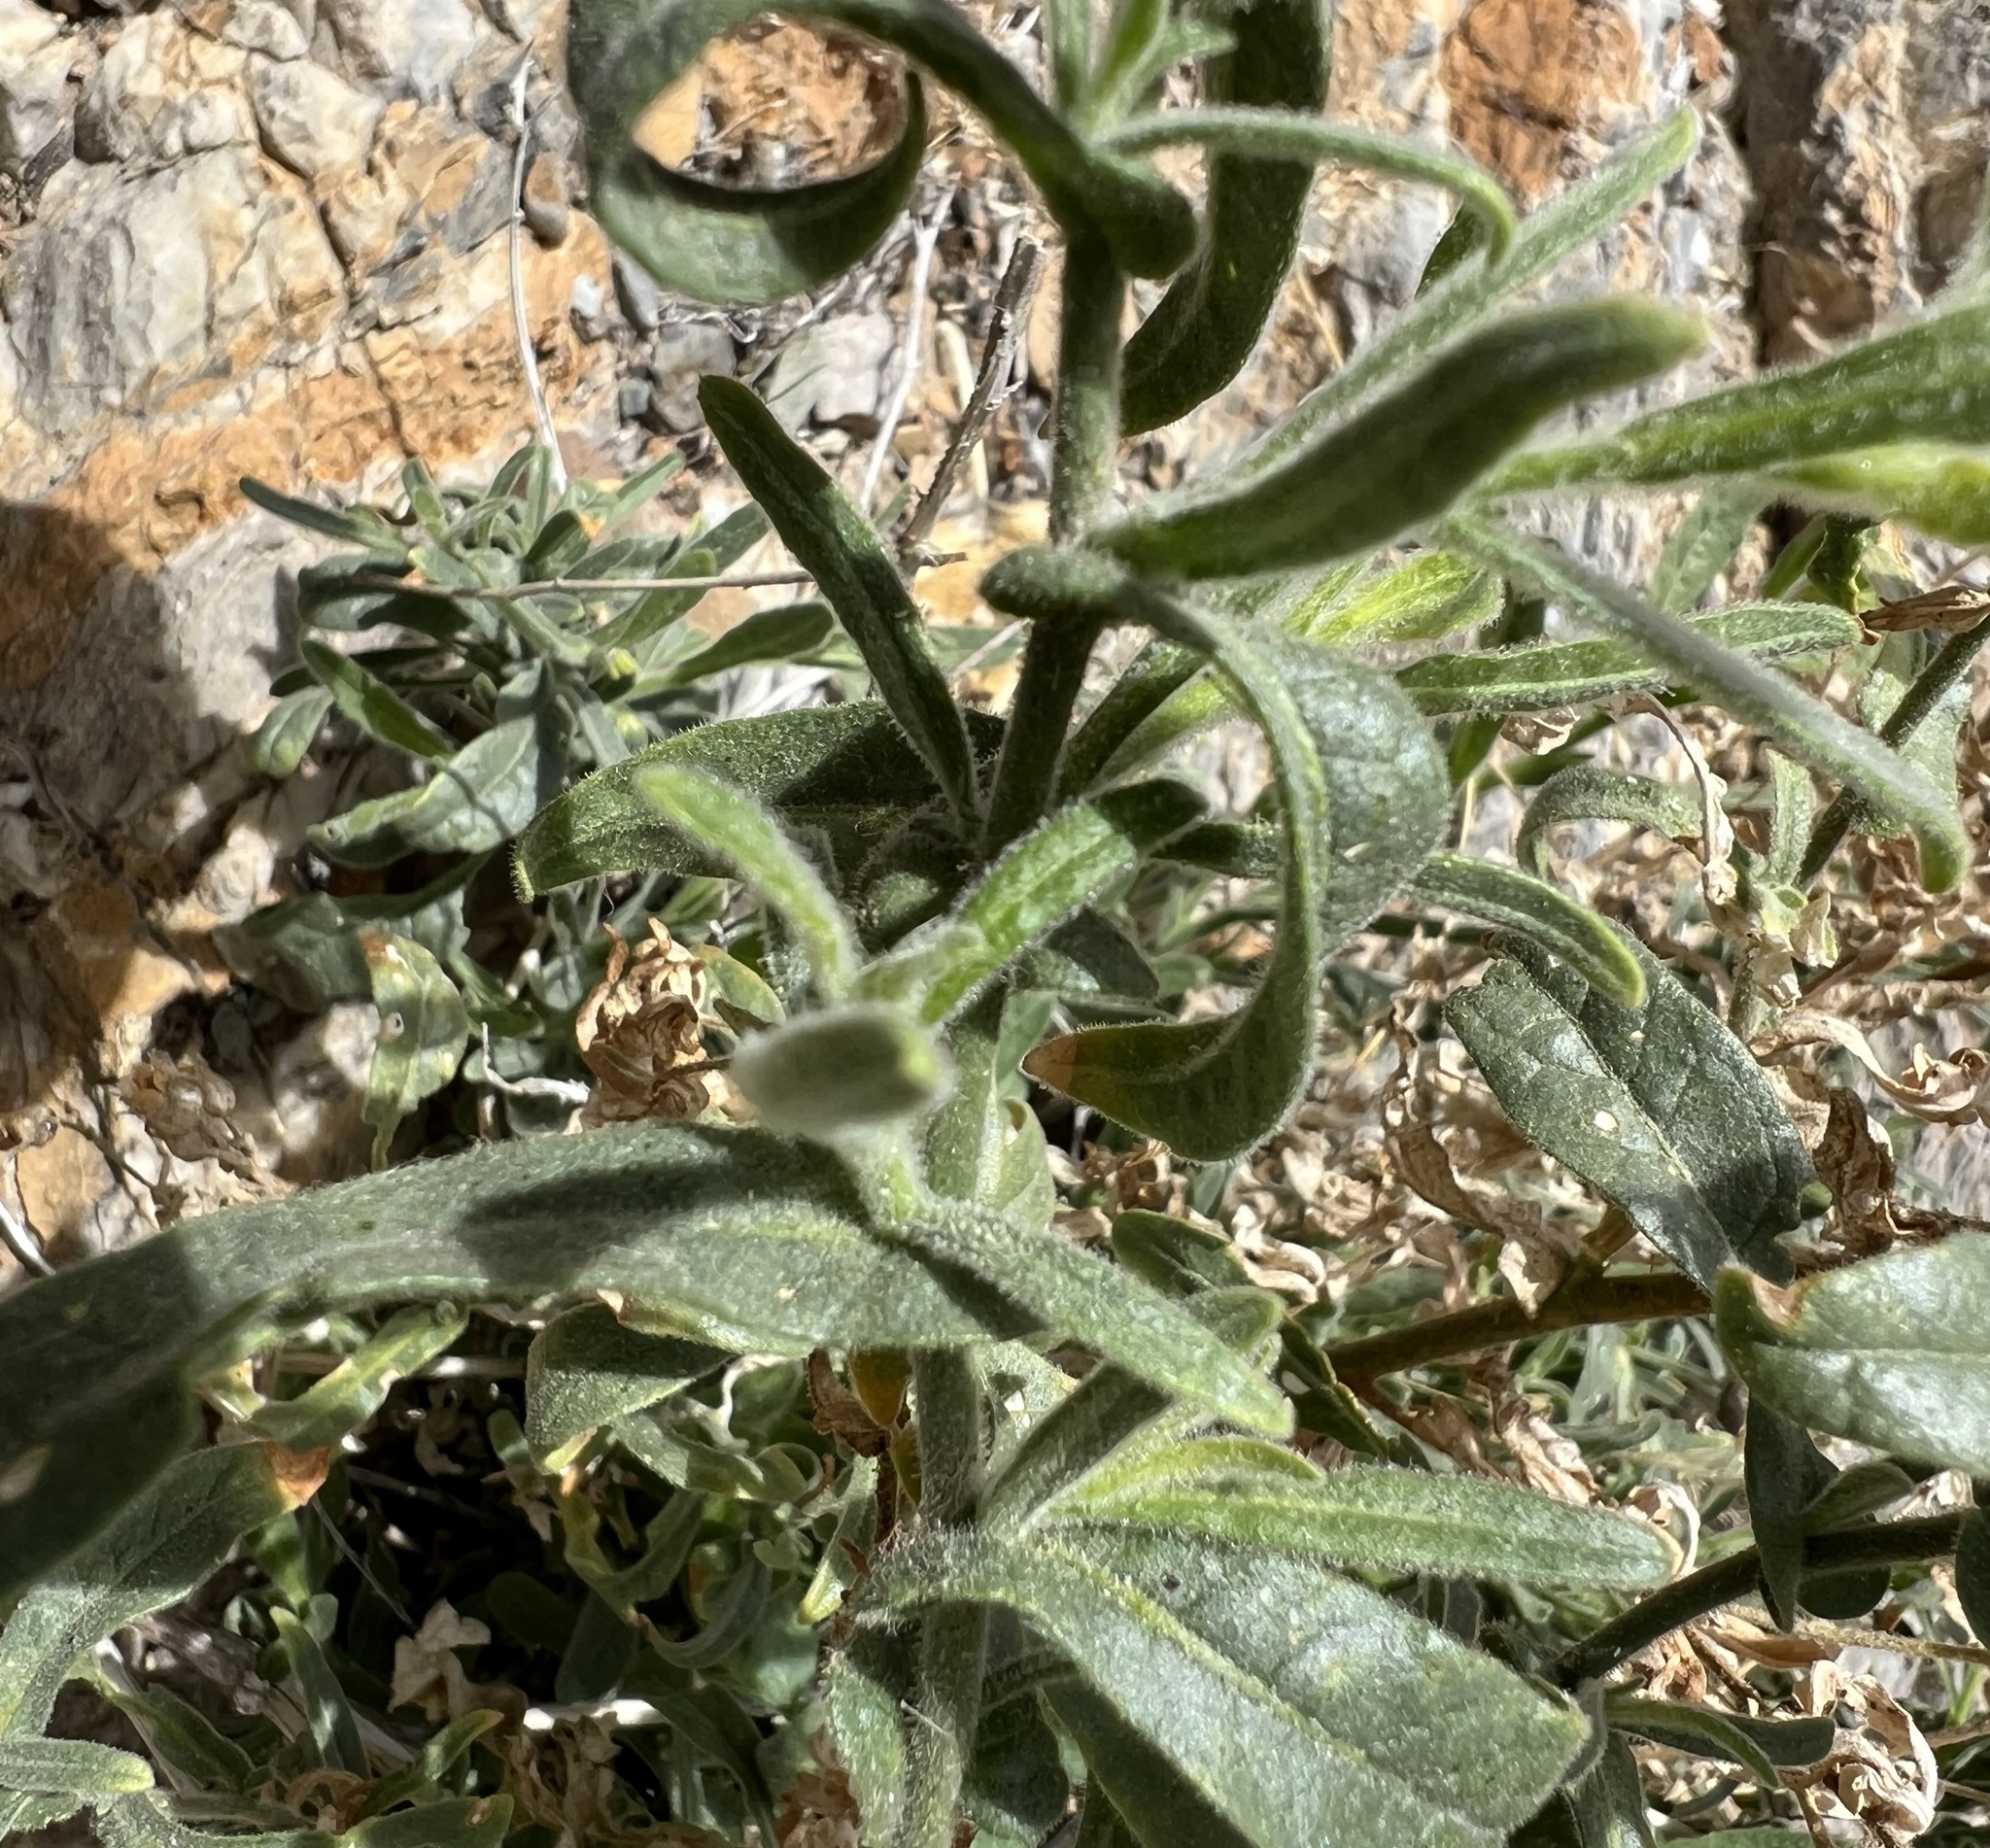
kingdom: Plantae
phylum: Tracheophyta
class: Magnoliopsida
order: Solanales
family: Solanaceae
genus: Nicotiana
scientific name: Nicotiana obtusifolia
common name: Desert tobacco
